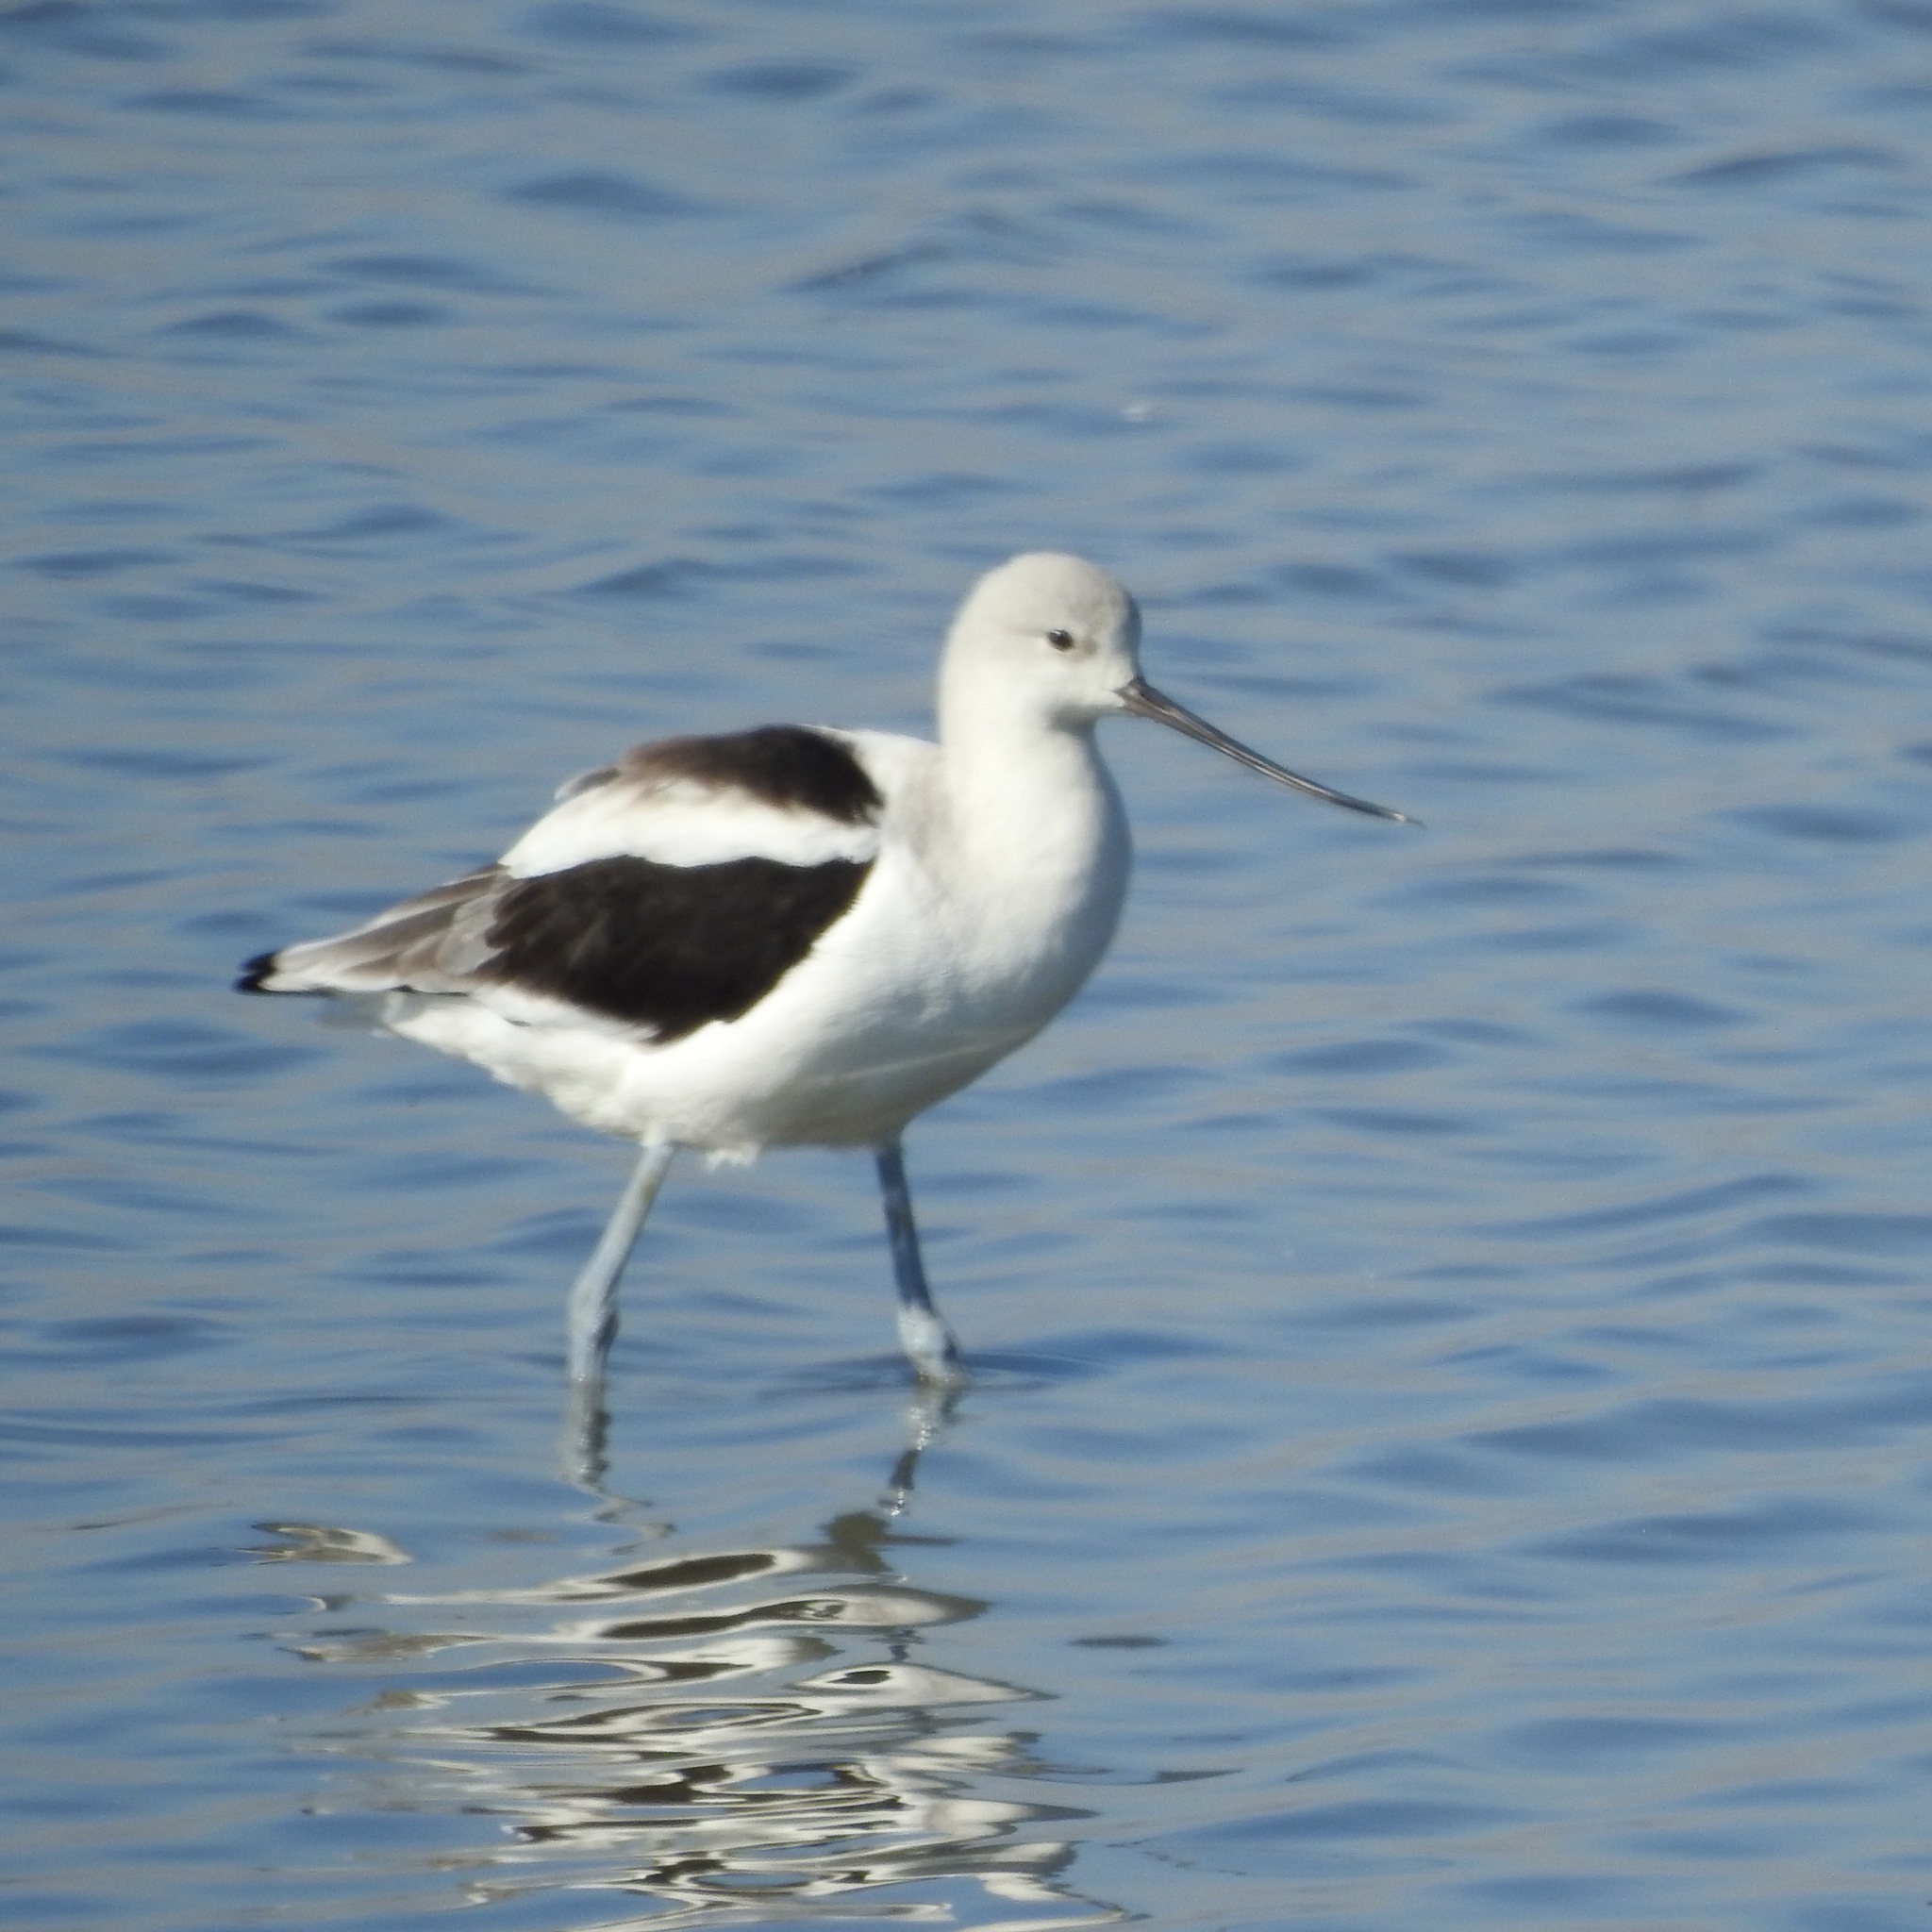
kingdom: Animalia
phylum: Chordata
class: Aves
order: Charadriiformes
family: Recurvirostridae
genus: Recurvirostra
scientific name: Recurvirostra americana
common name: American avocet
